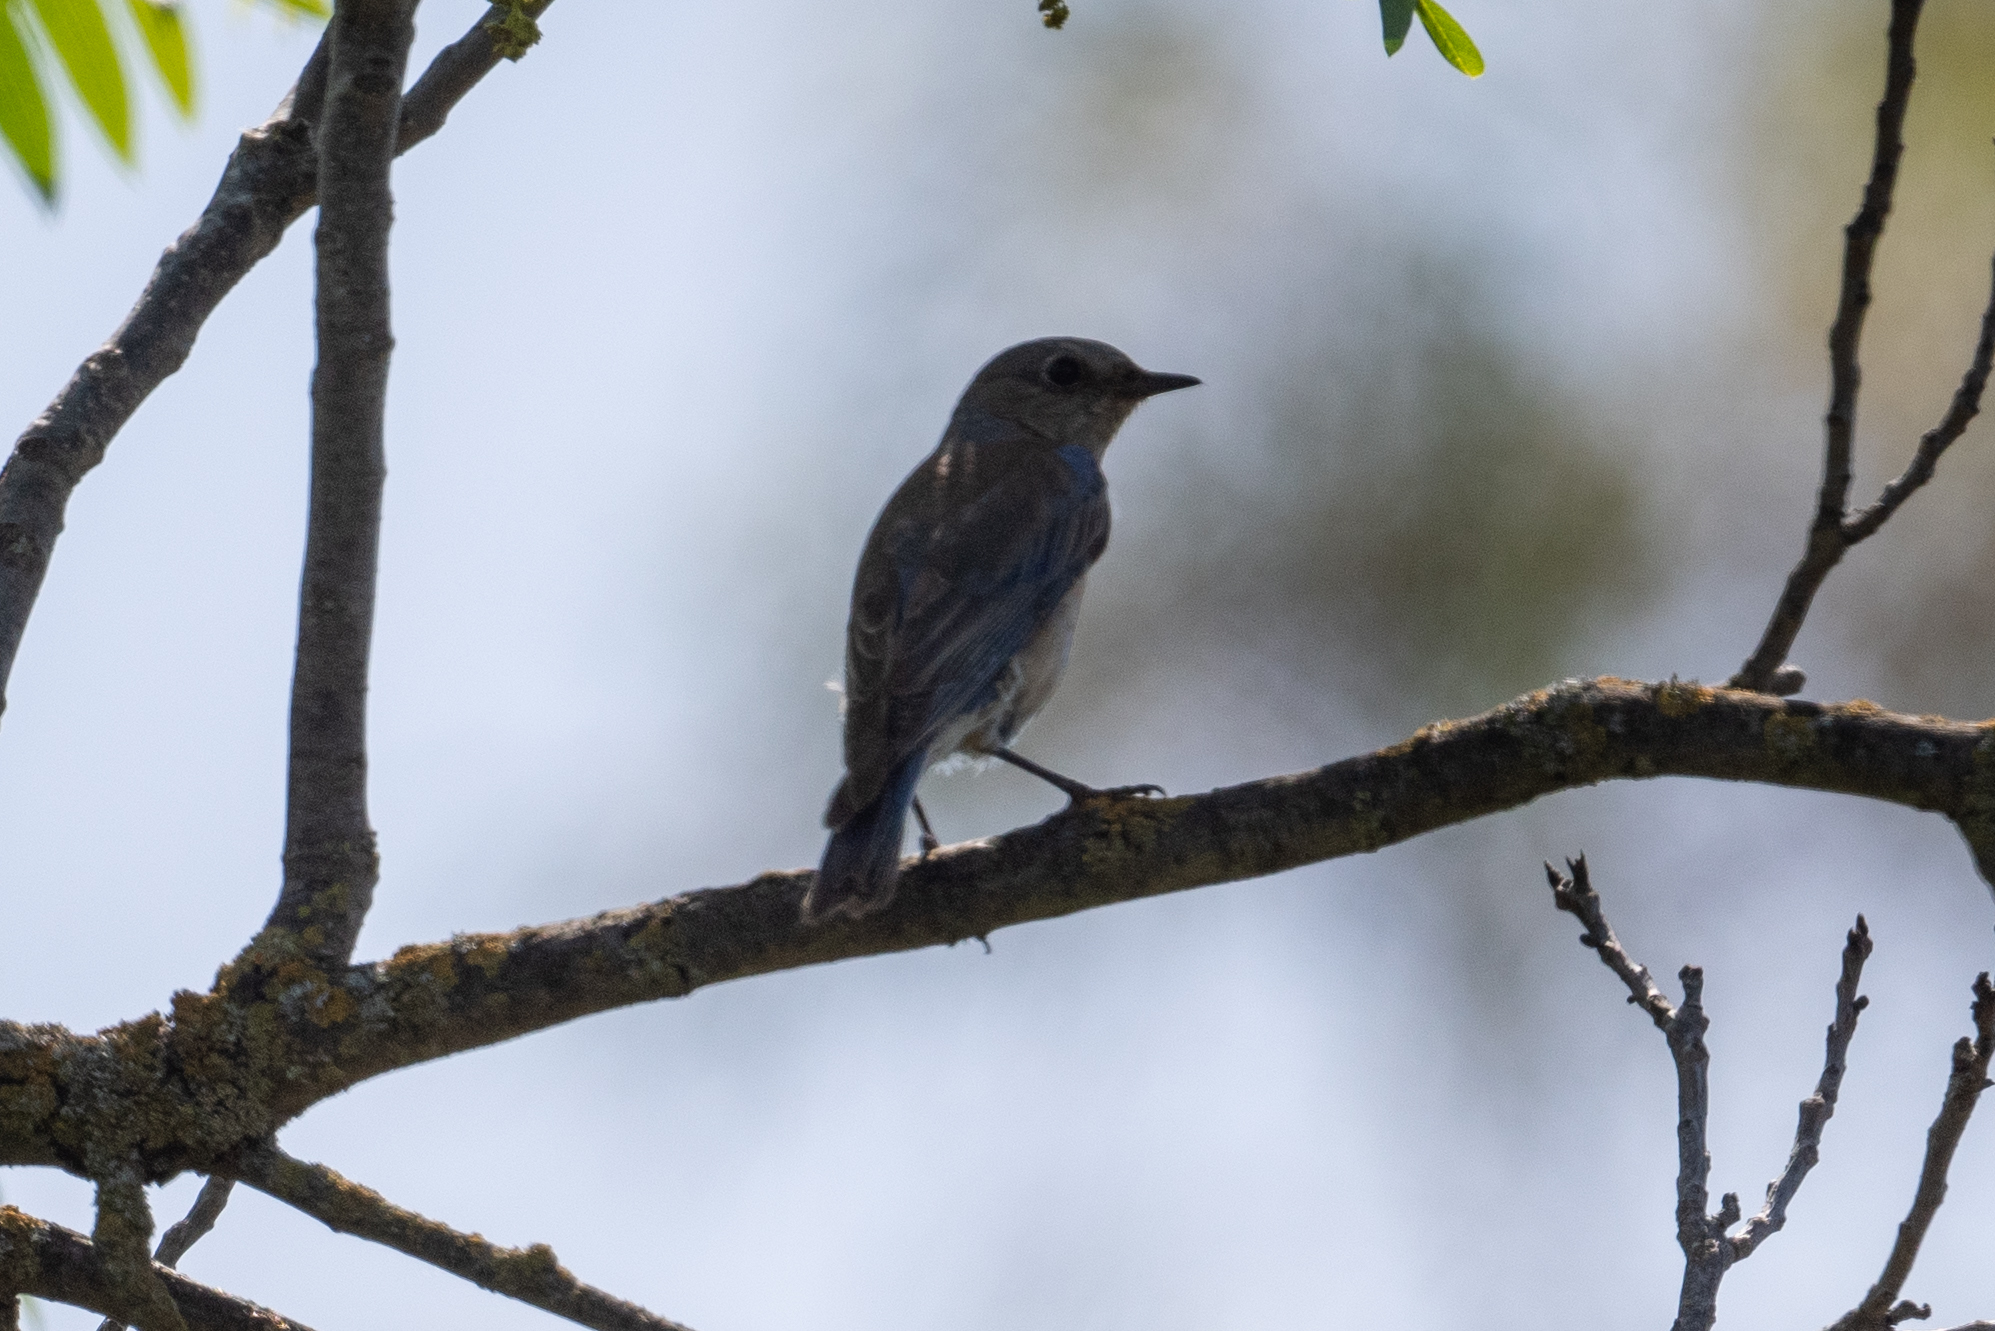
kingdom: Animalia
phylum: Chordata
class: Aves
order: Passeriformes
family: Turdidae
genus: Sialia
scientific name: Sialia mexicana
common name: Western bluebird
